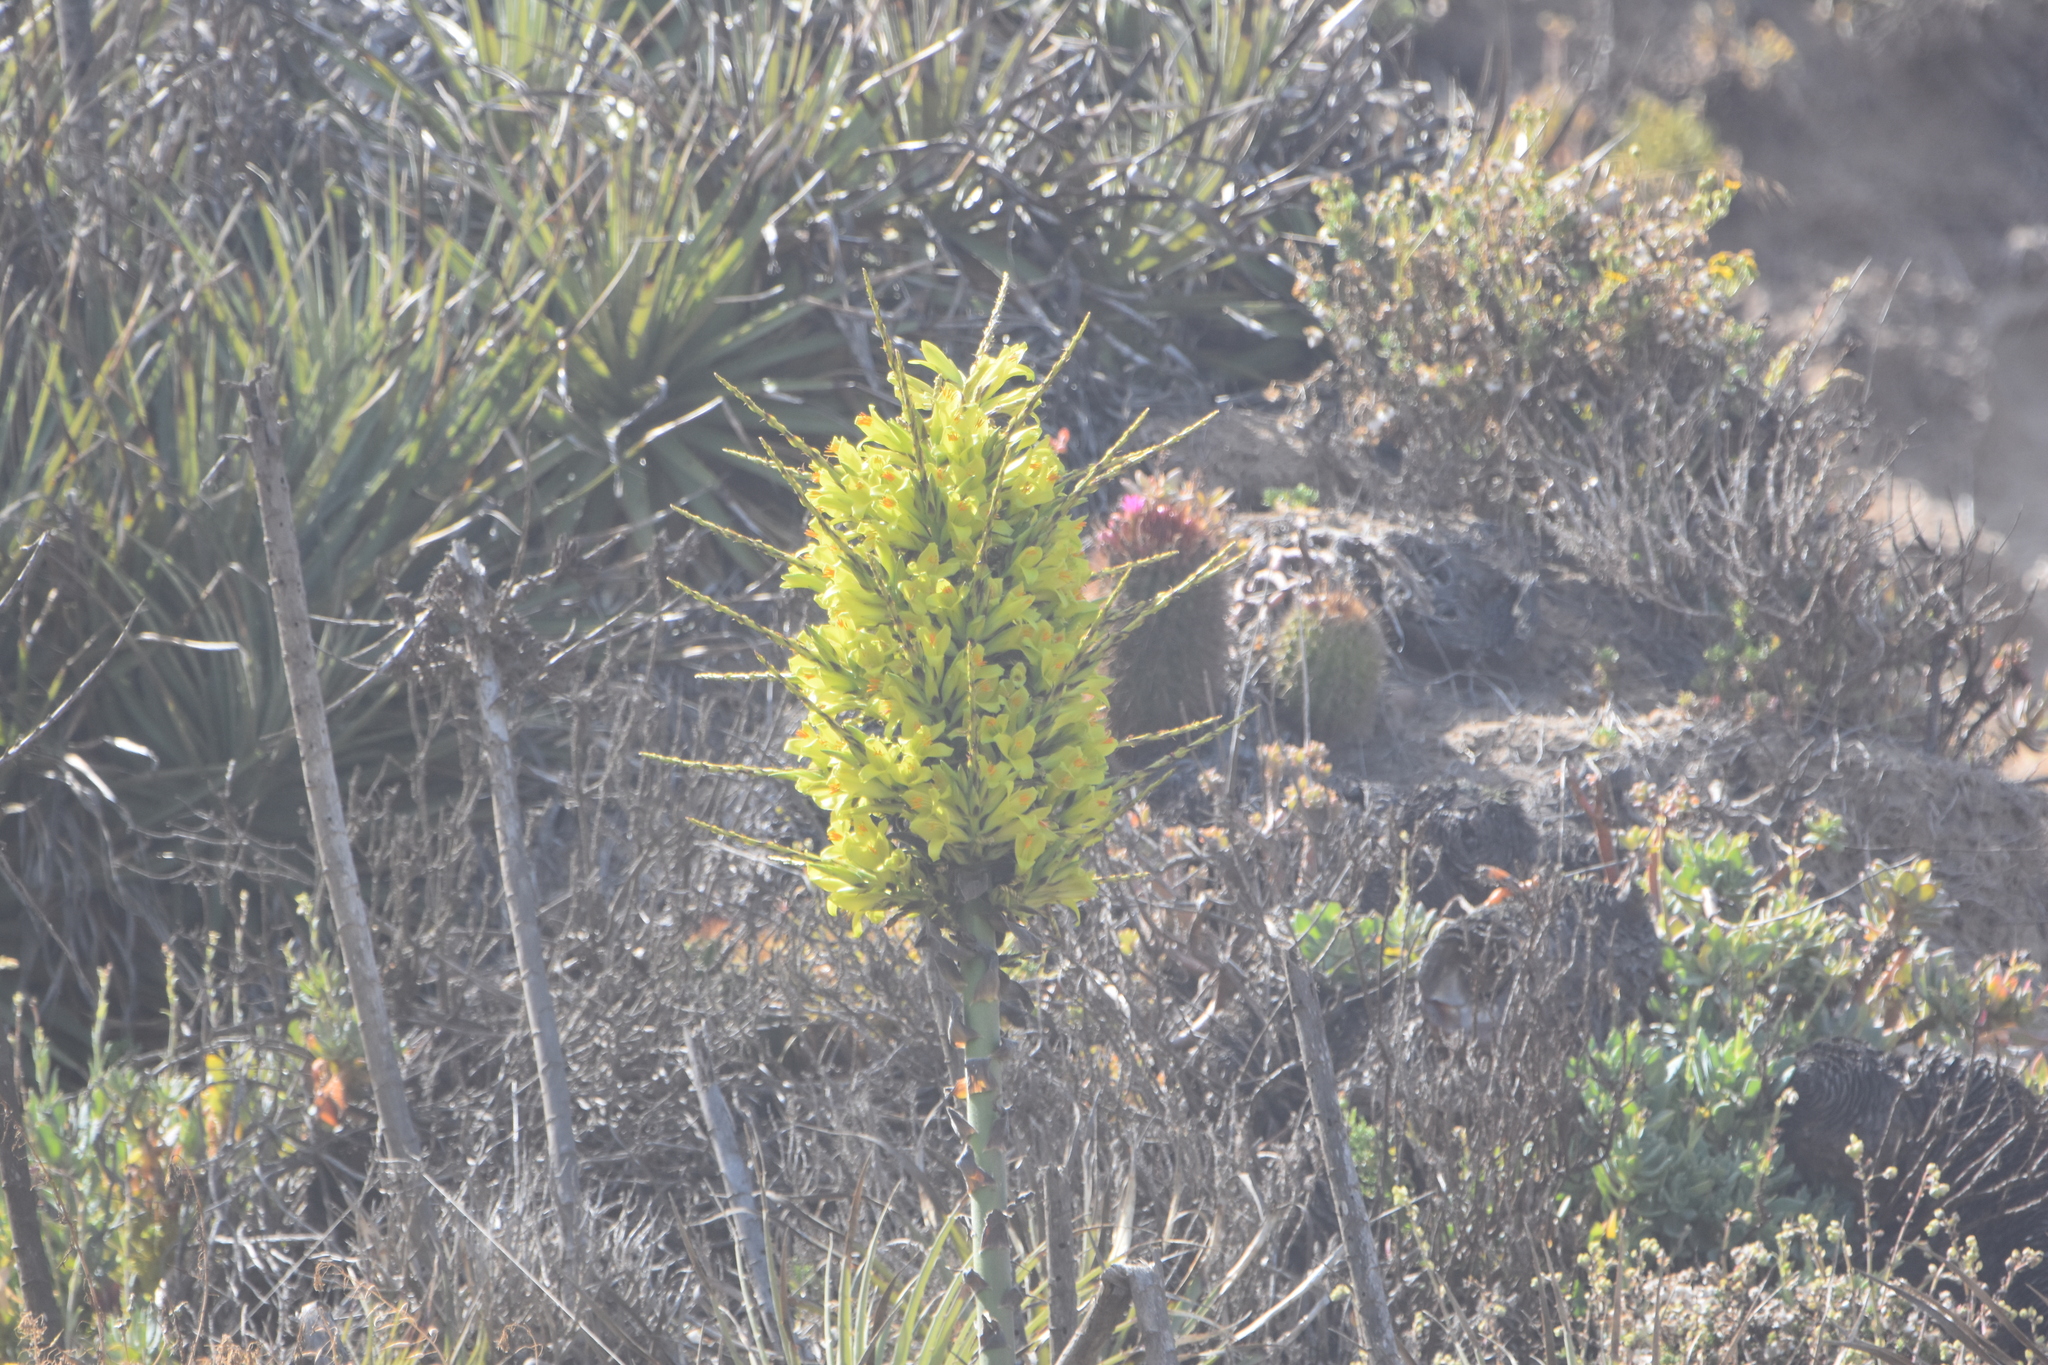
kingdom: Plantae
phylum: Tracheophyta
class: Liliopsida
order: Poales
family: Bromeliaceae
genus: Puya
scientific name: Puya chilensis
